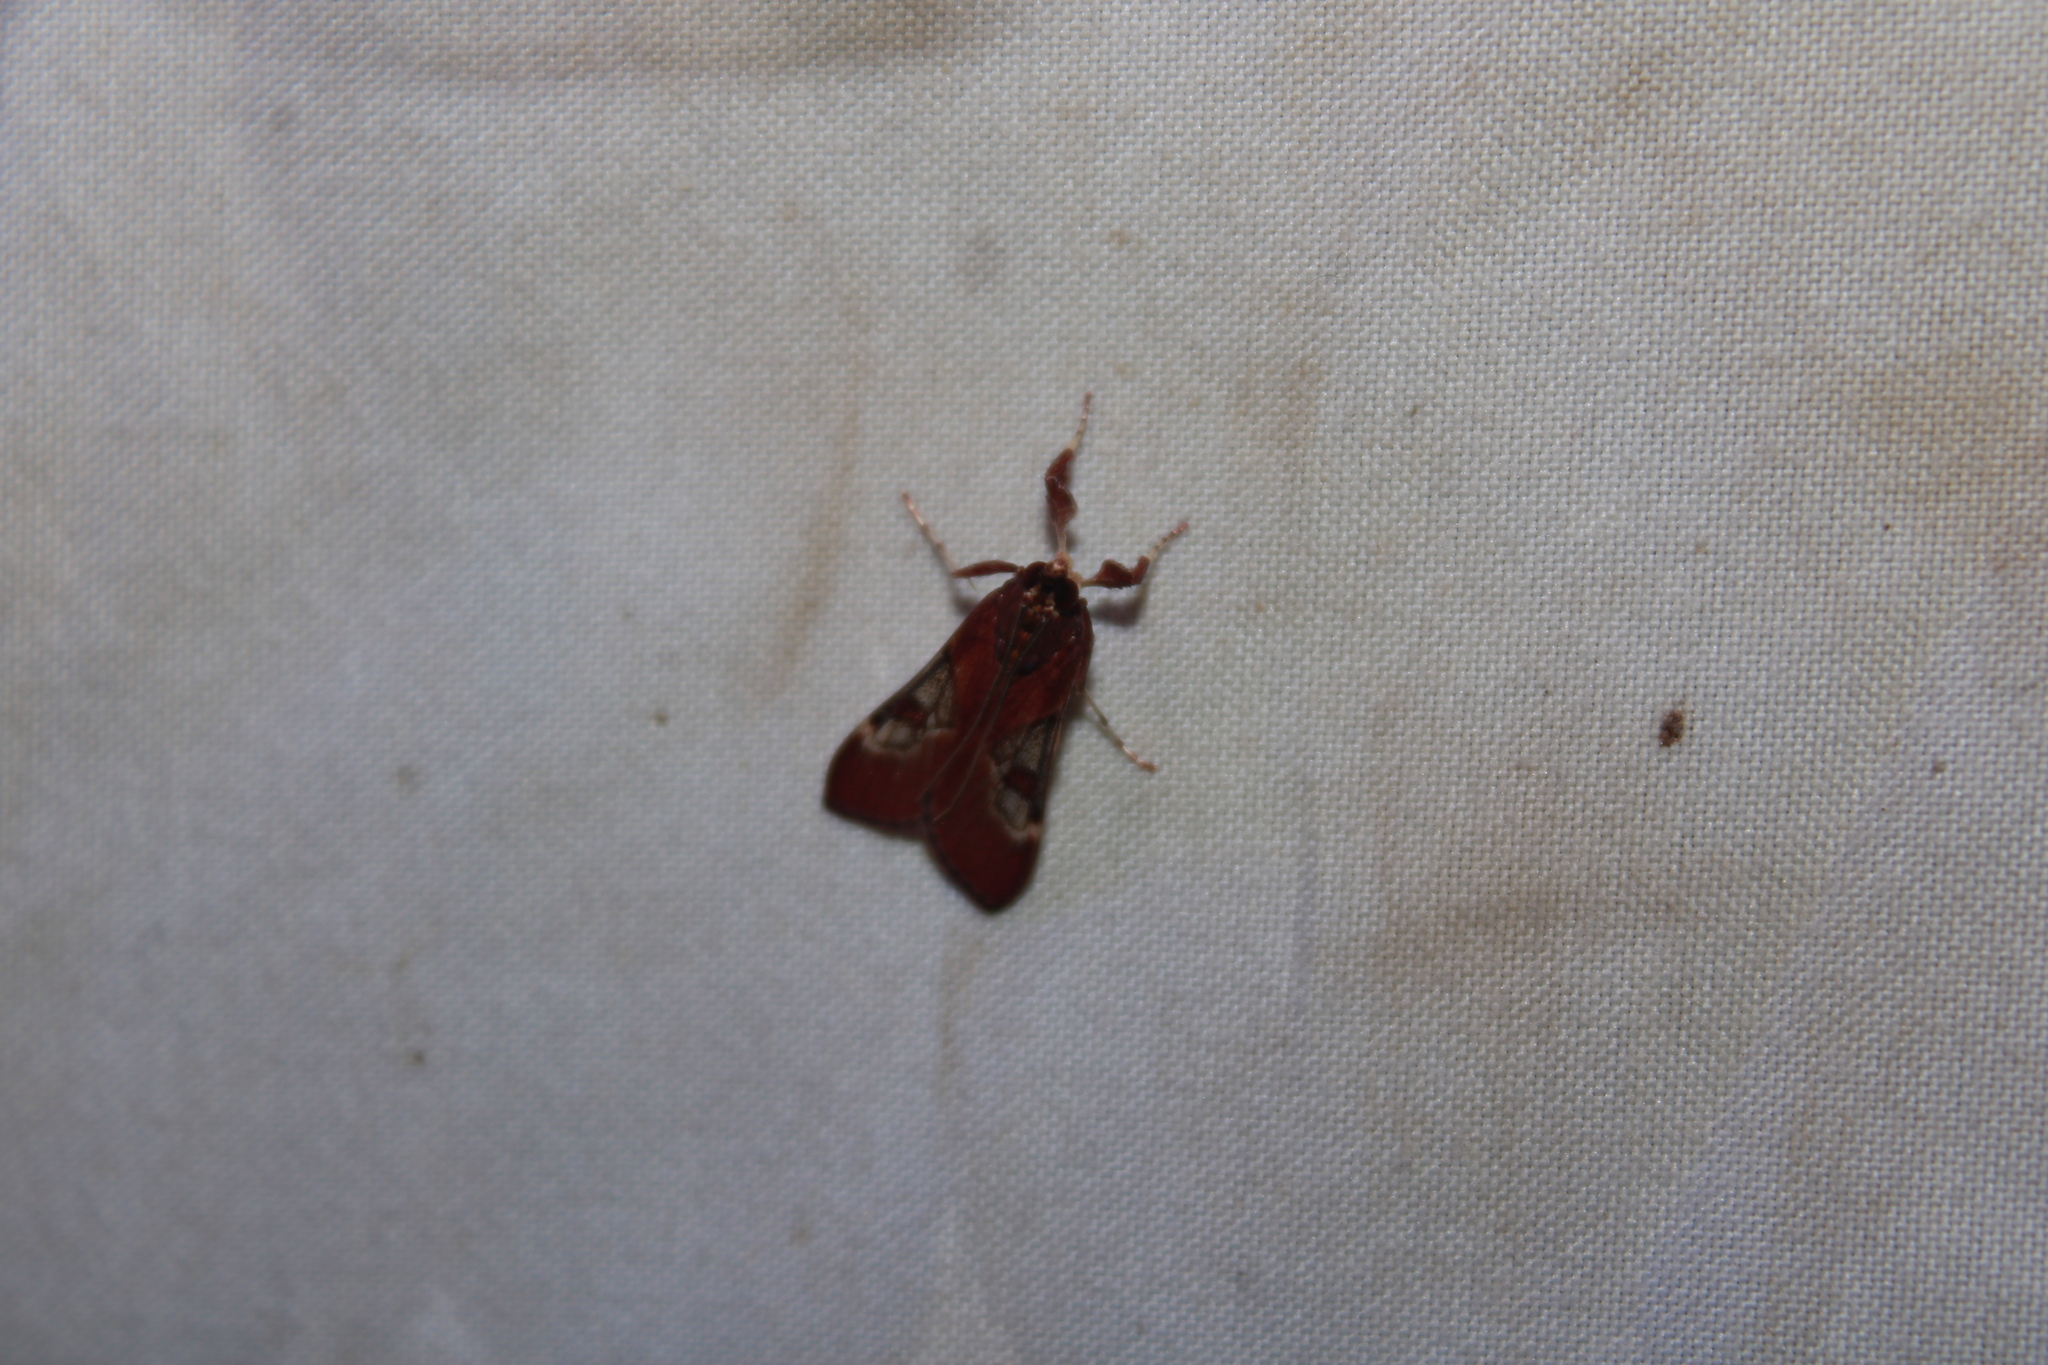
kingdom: Animalia
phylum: Arthropoda
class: Insecta
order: Lepidoptera
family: Crambidae
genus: Omiodes
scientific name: Omiodes stigmosalis
